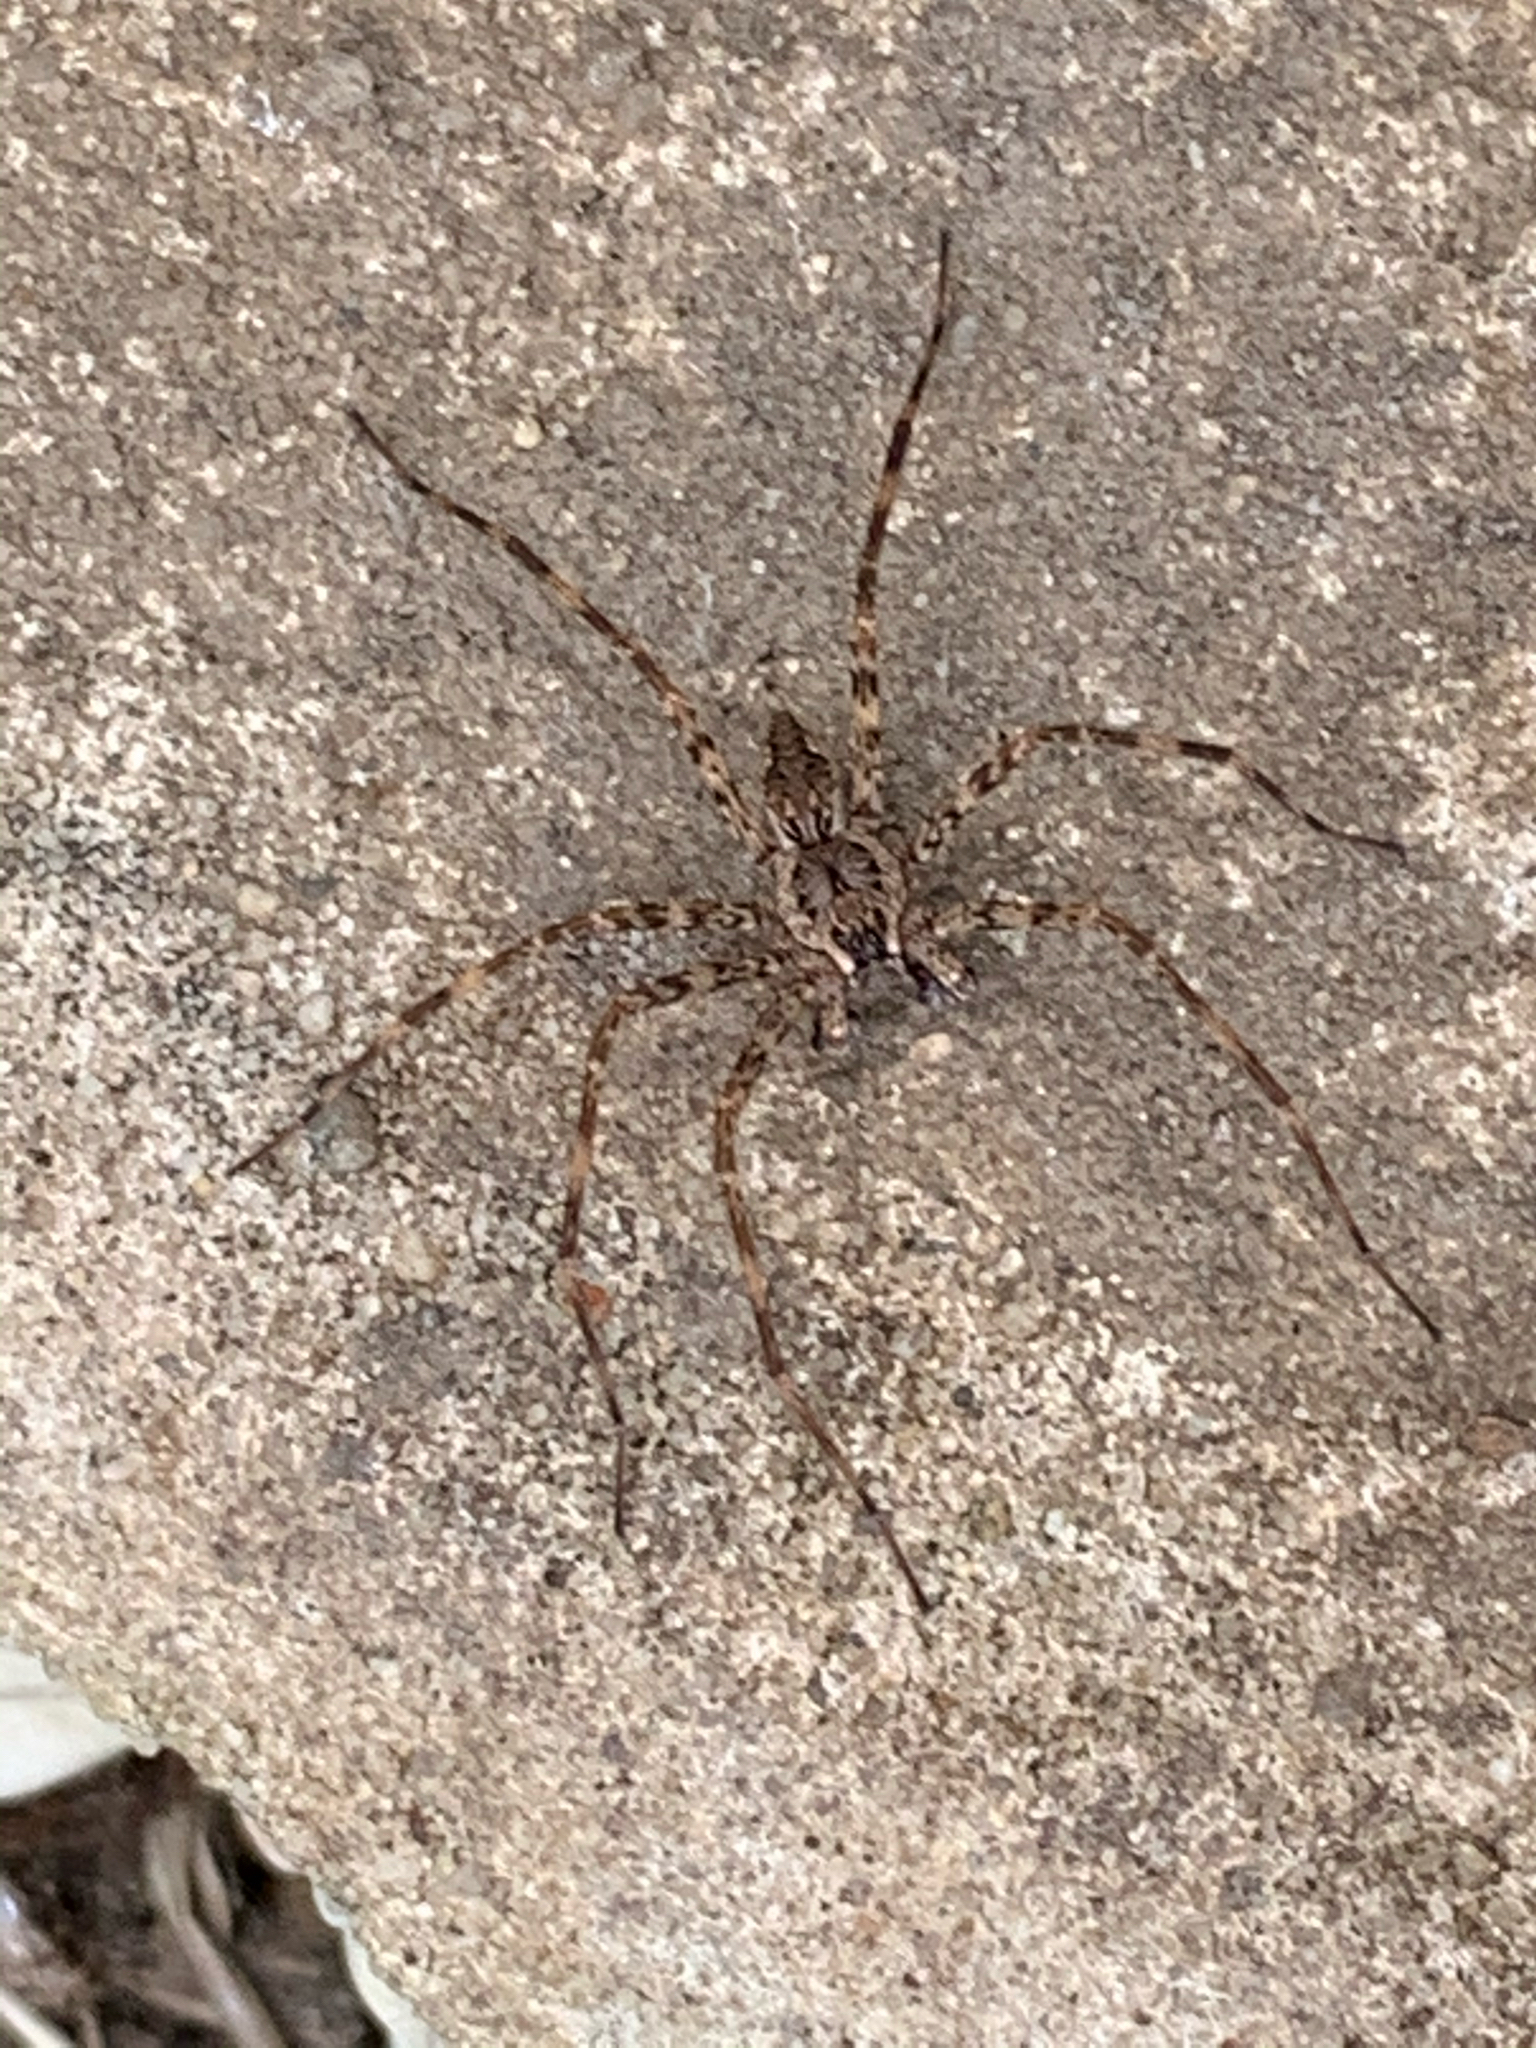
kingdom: Animalia
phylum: Arthropoda
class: Arachnida
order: Araneae
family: Pisauridae
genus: Dolomedes
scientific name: Dolomedes
